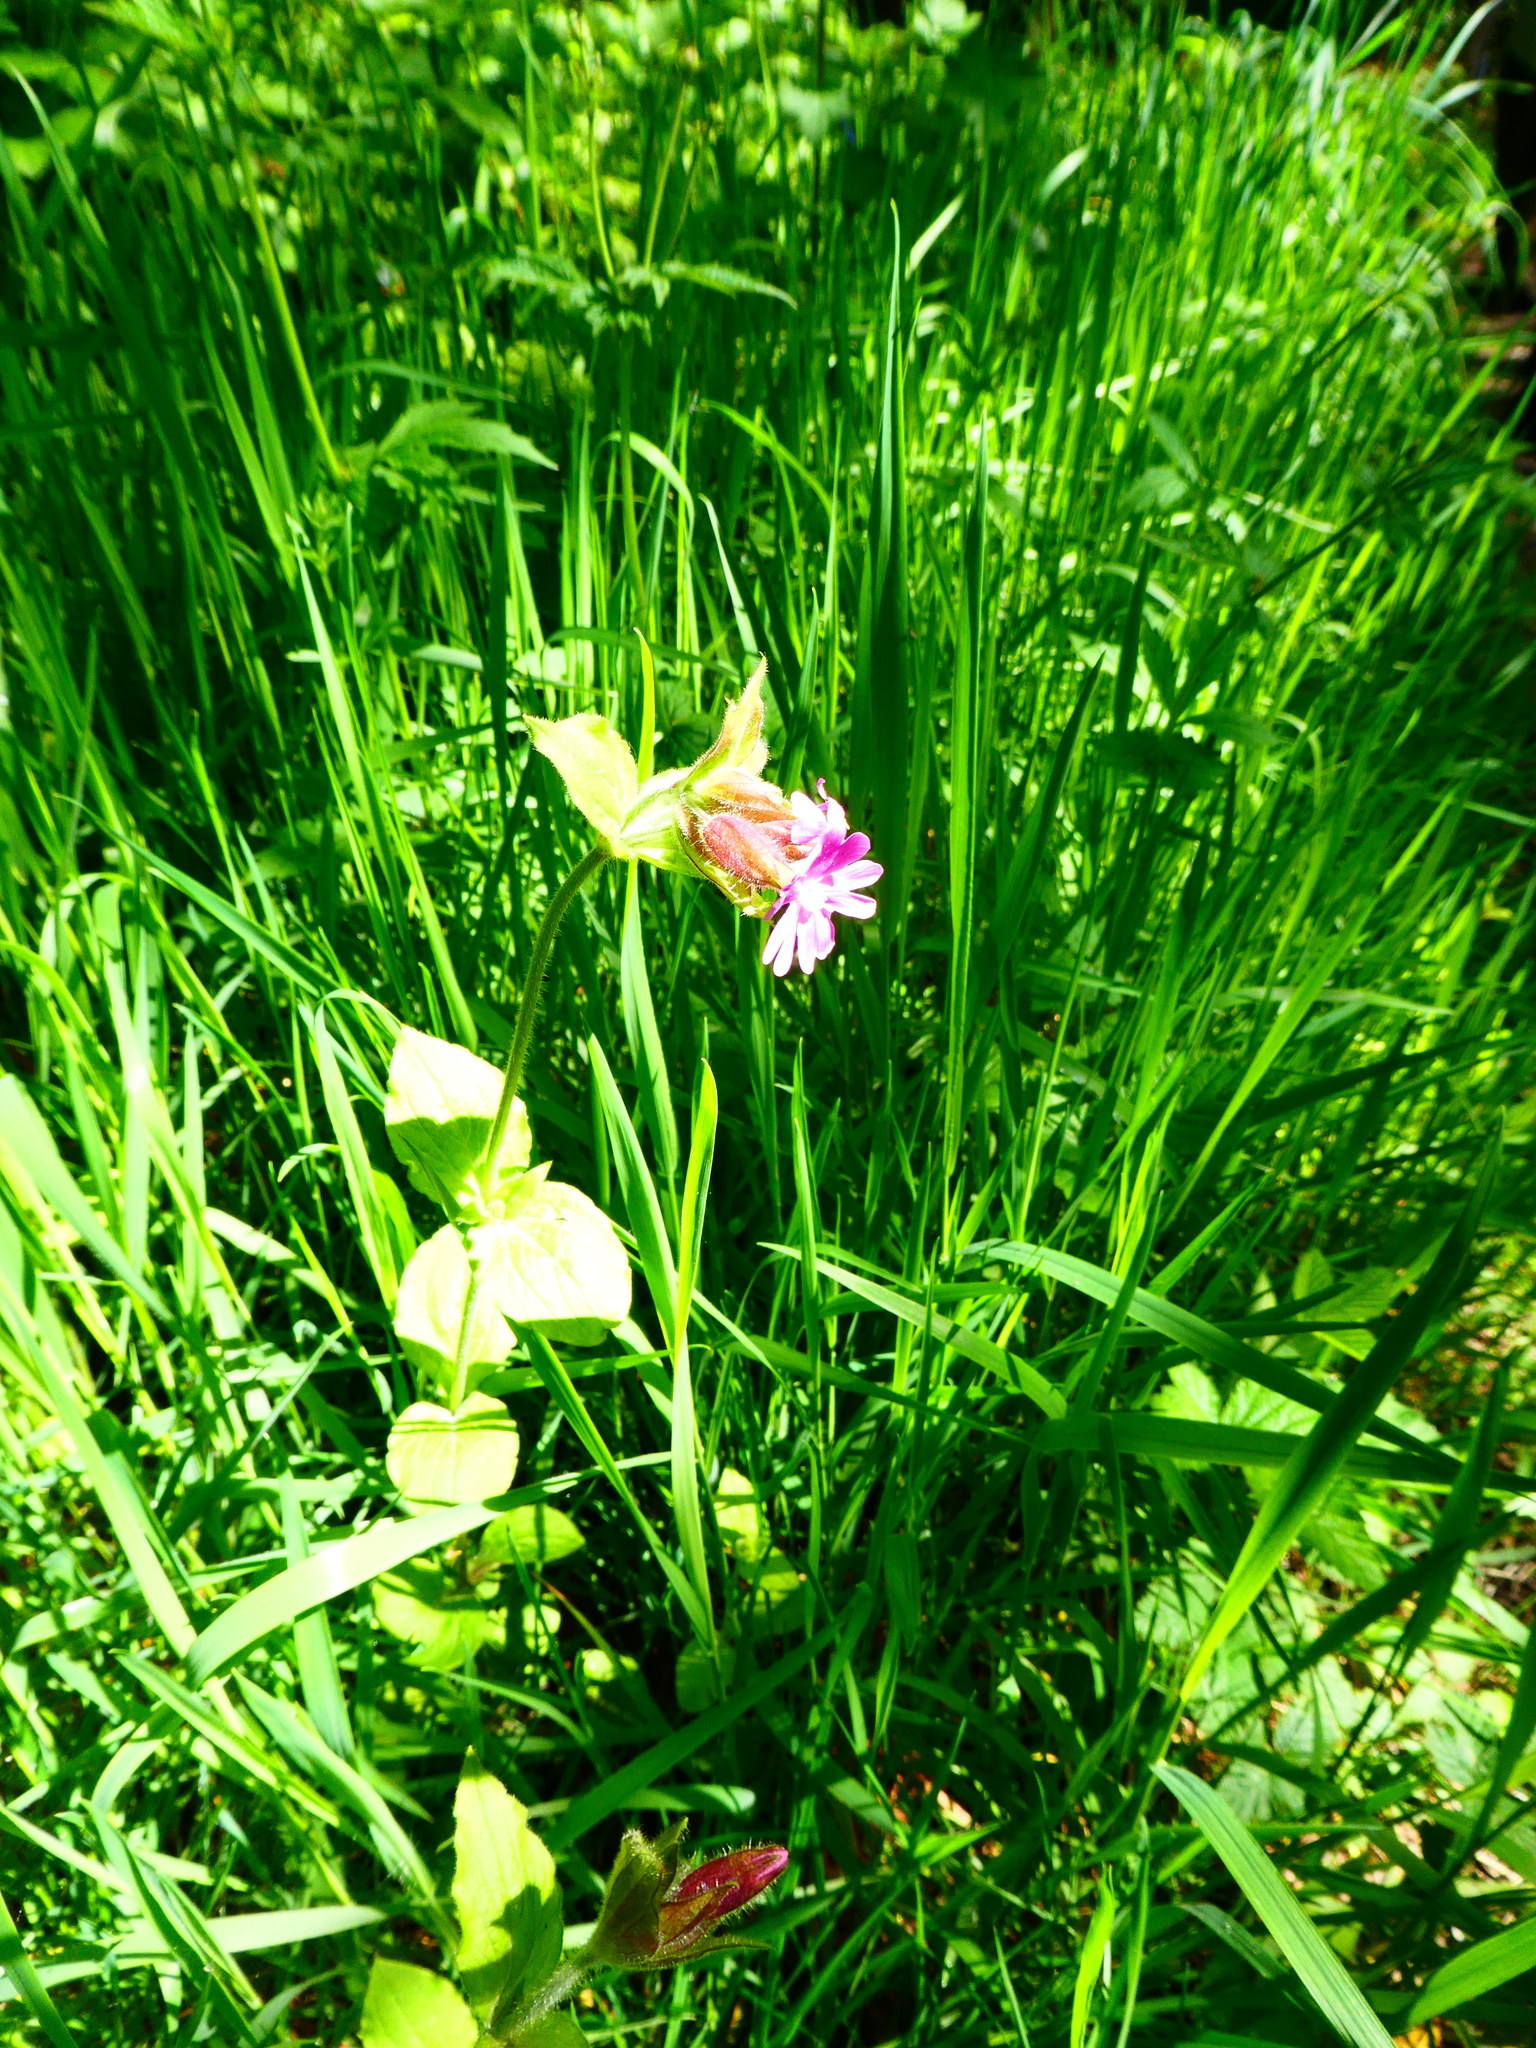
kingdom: Plantae
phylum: Tracheophyta
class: Magnoliopsida
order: Caryophyllales
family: Caryophyllaceae
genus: Silene
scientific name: Silene dioica
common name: Red campion
